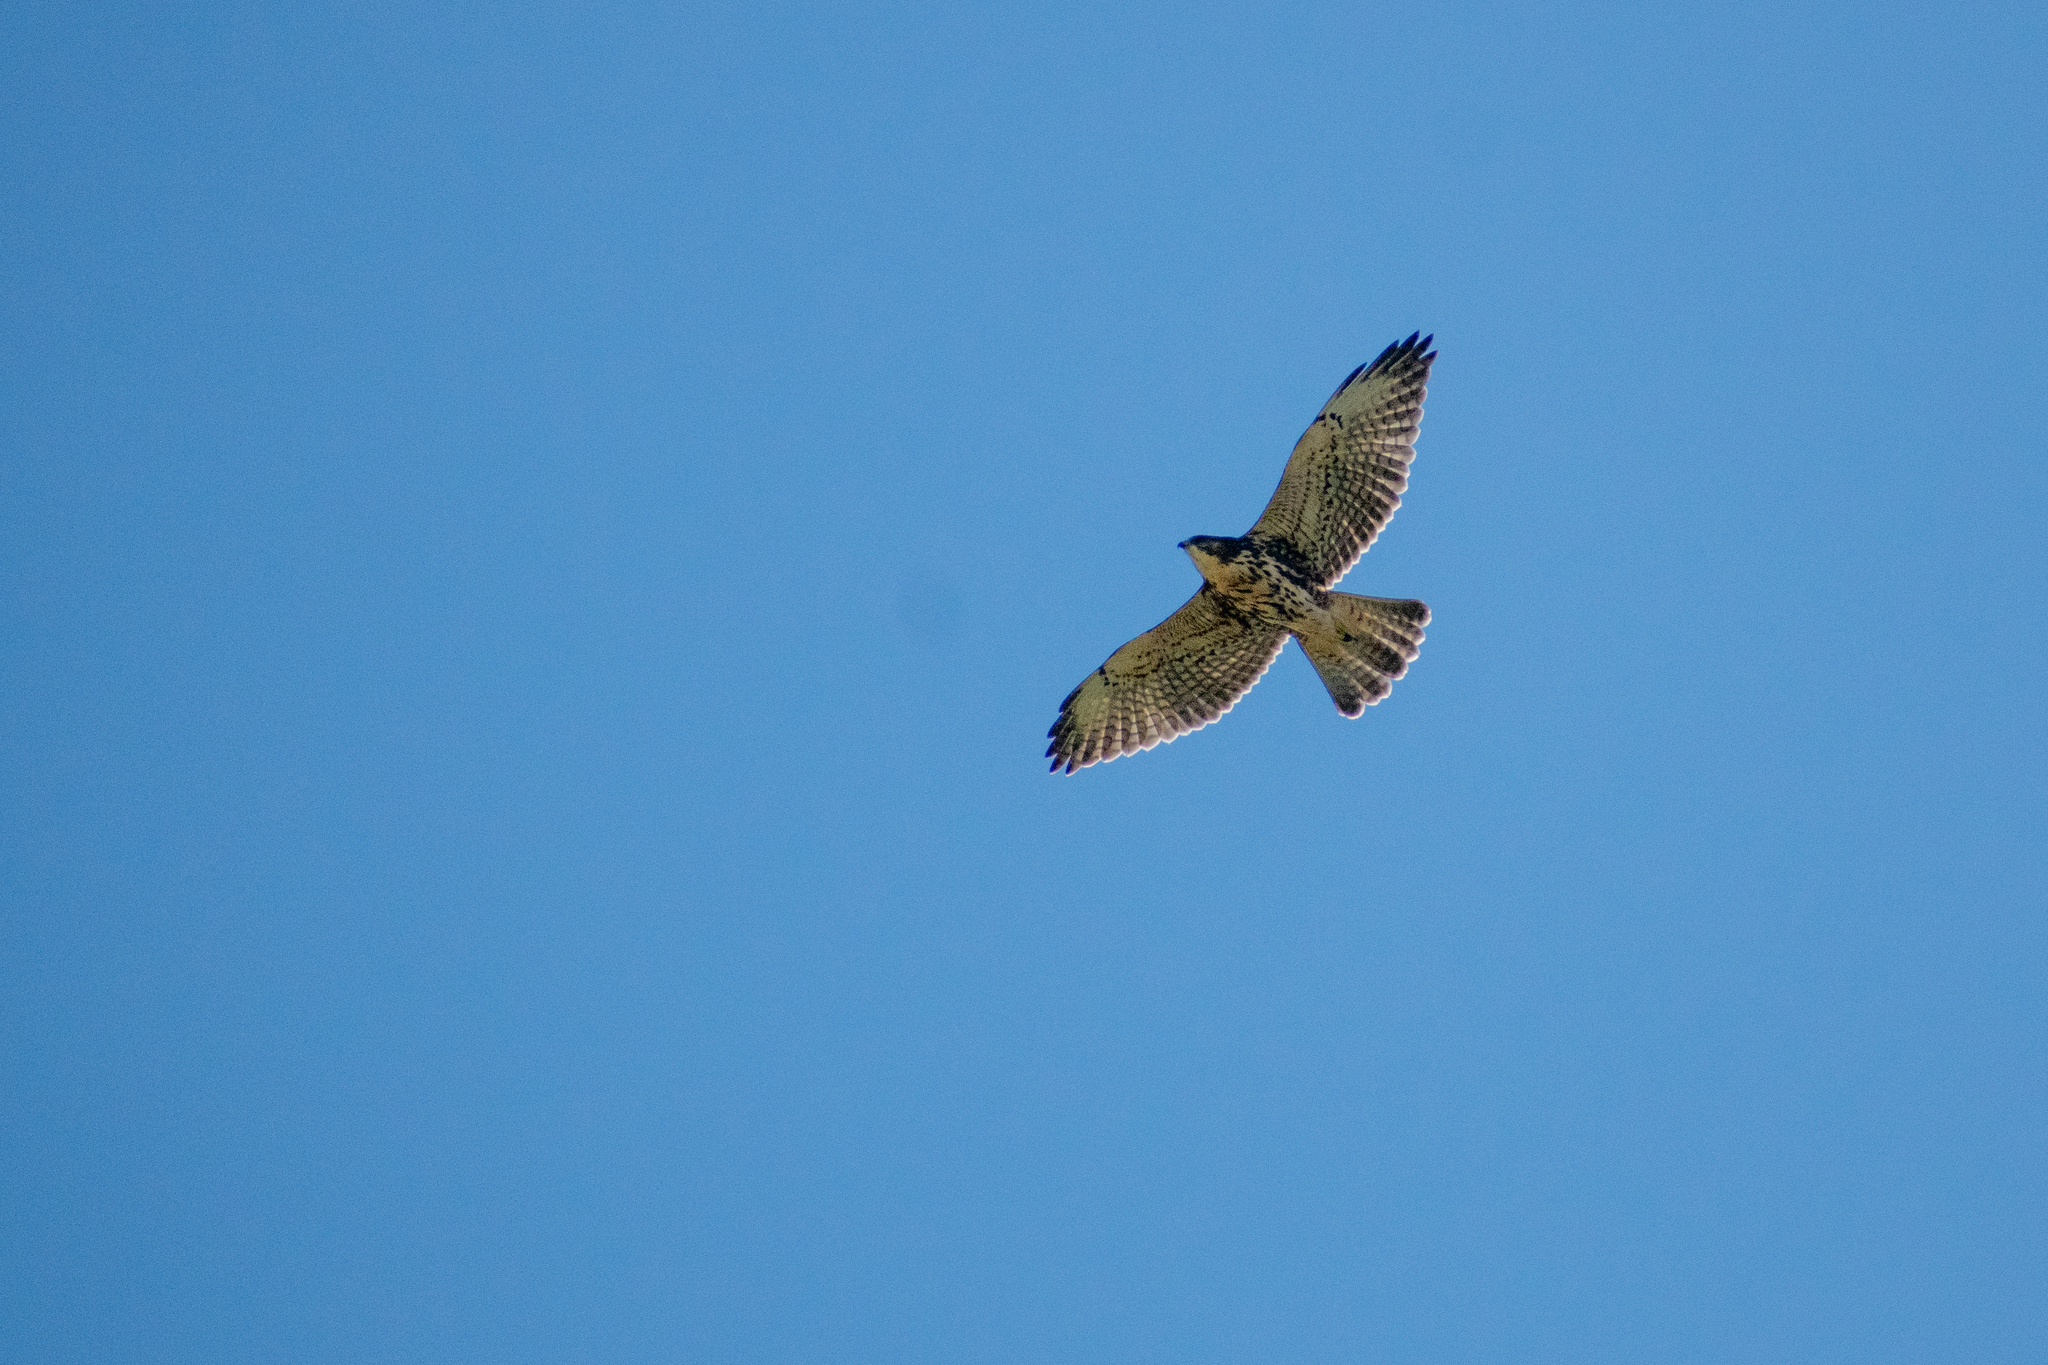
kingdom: Animalia
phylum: Chordata
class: Aves
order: Accipitriformes
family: Accipitridae
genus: Buteo
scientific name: Buteo albigula
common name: White-throated hawk
